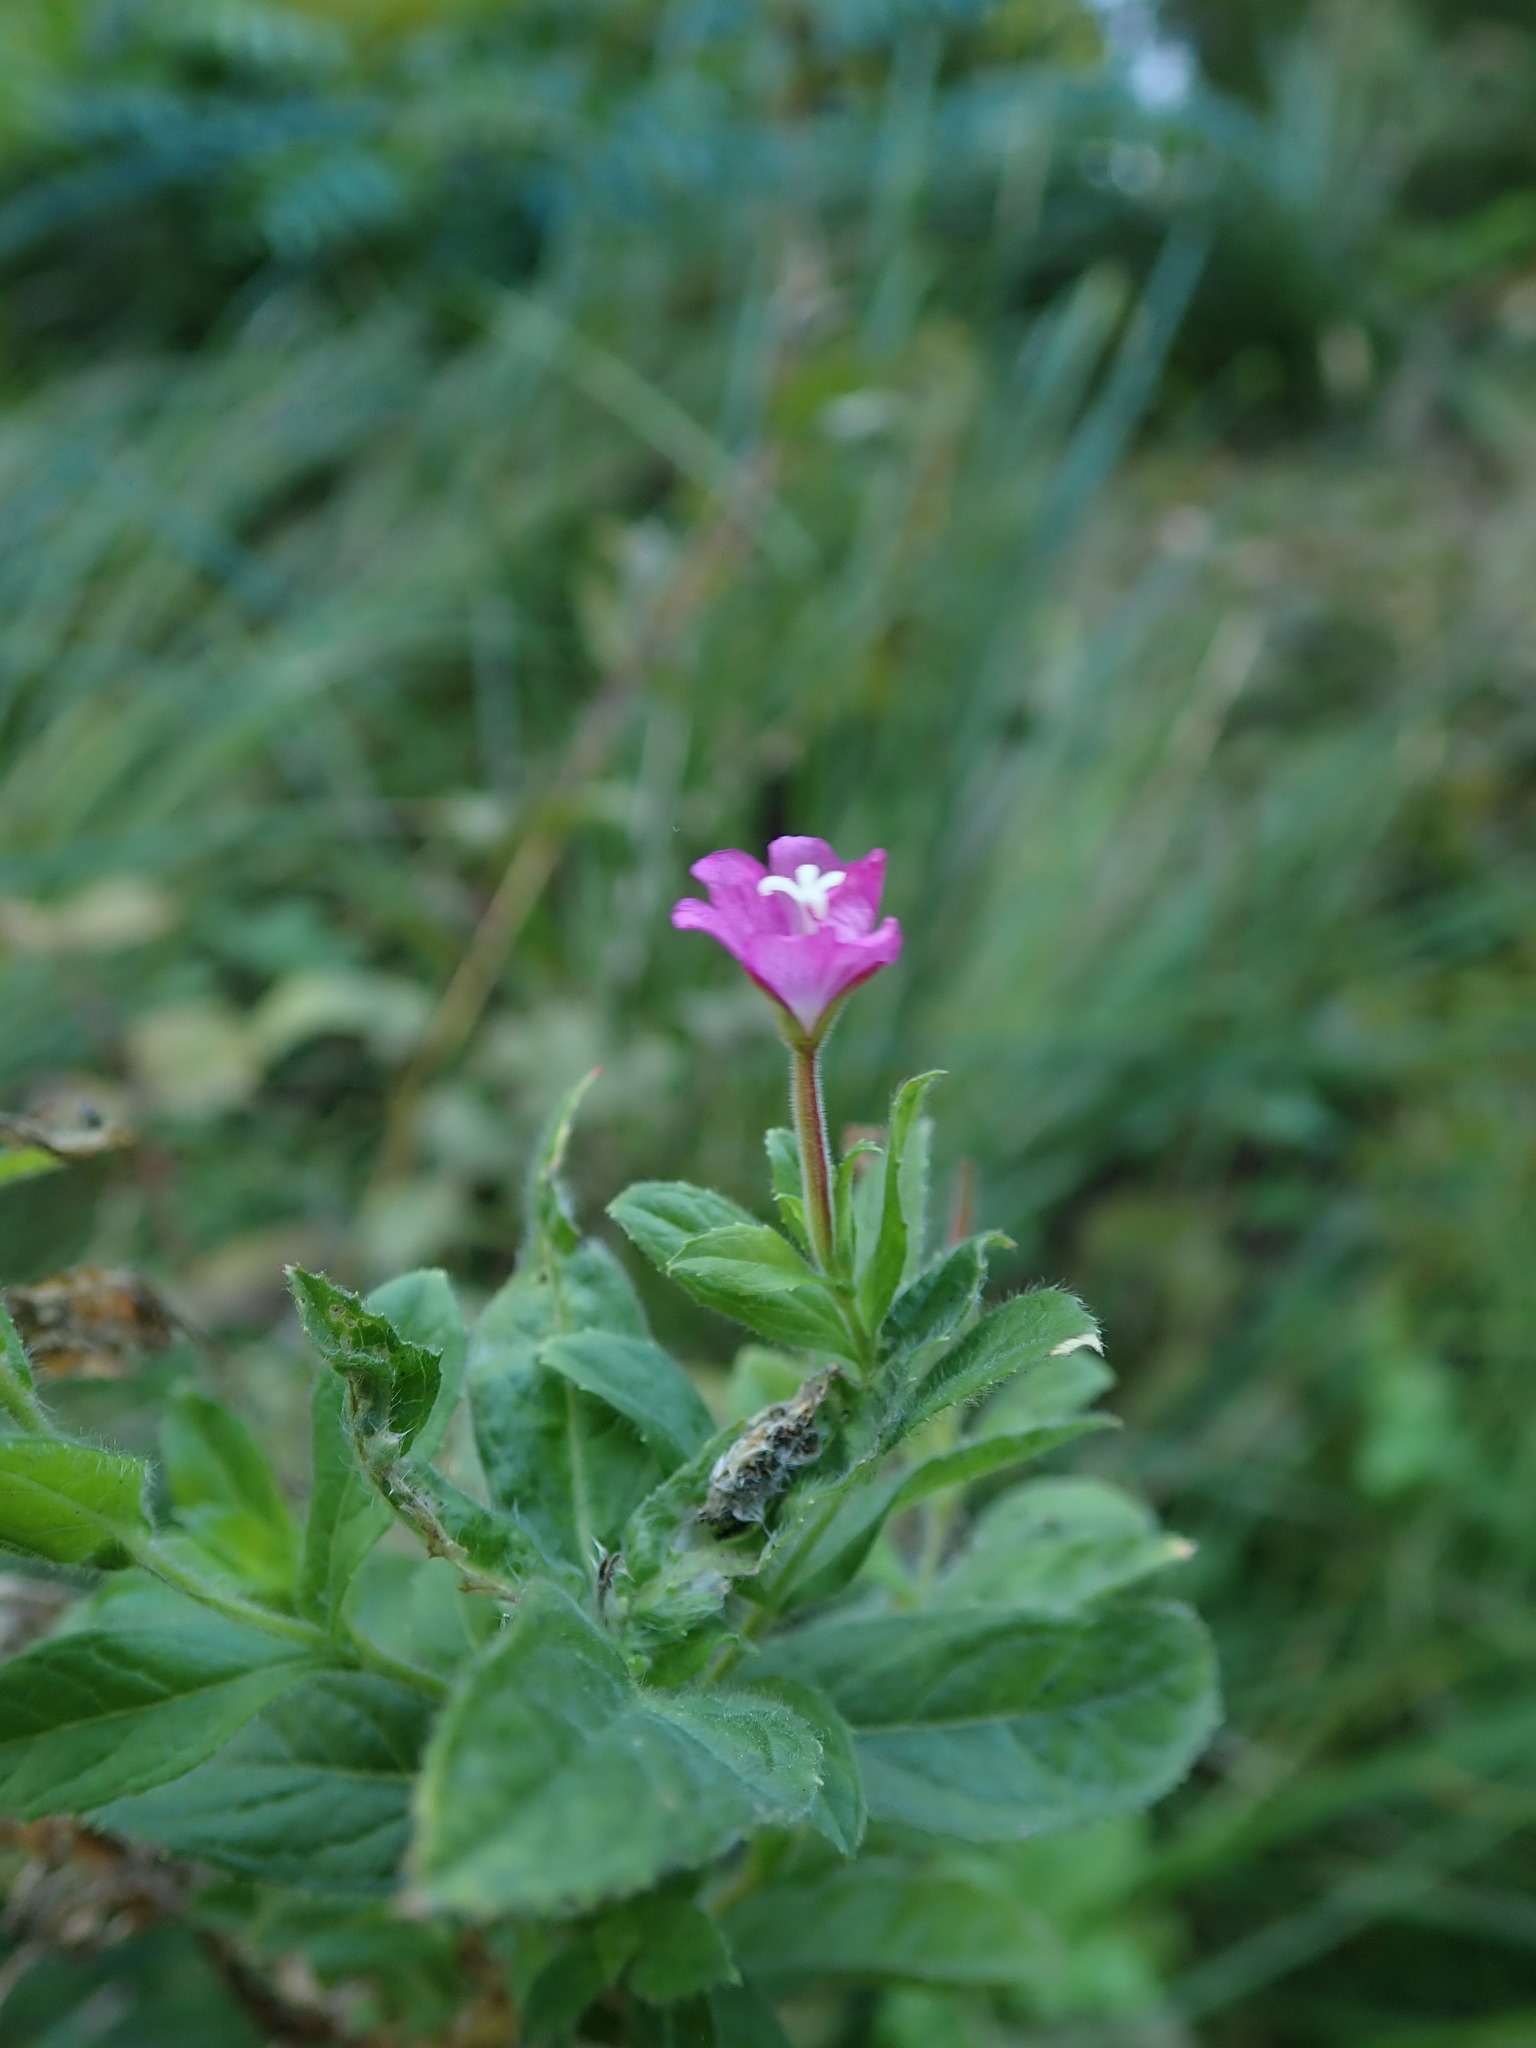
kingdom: Plantae
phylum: Tracheophyta
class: Magnoliopsida
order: Myrtales
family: Onagraceae
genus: Epilobium
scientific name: Epilobium hirsutum
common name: Great willowherb
